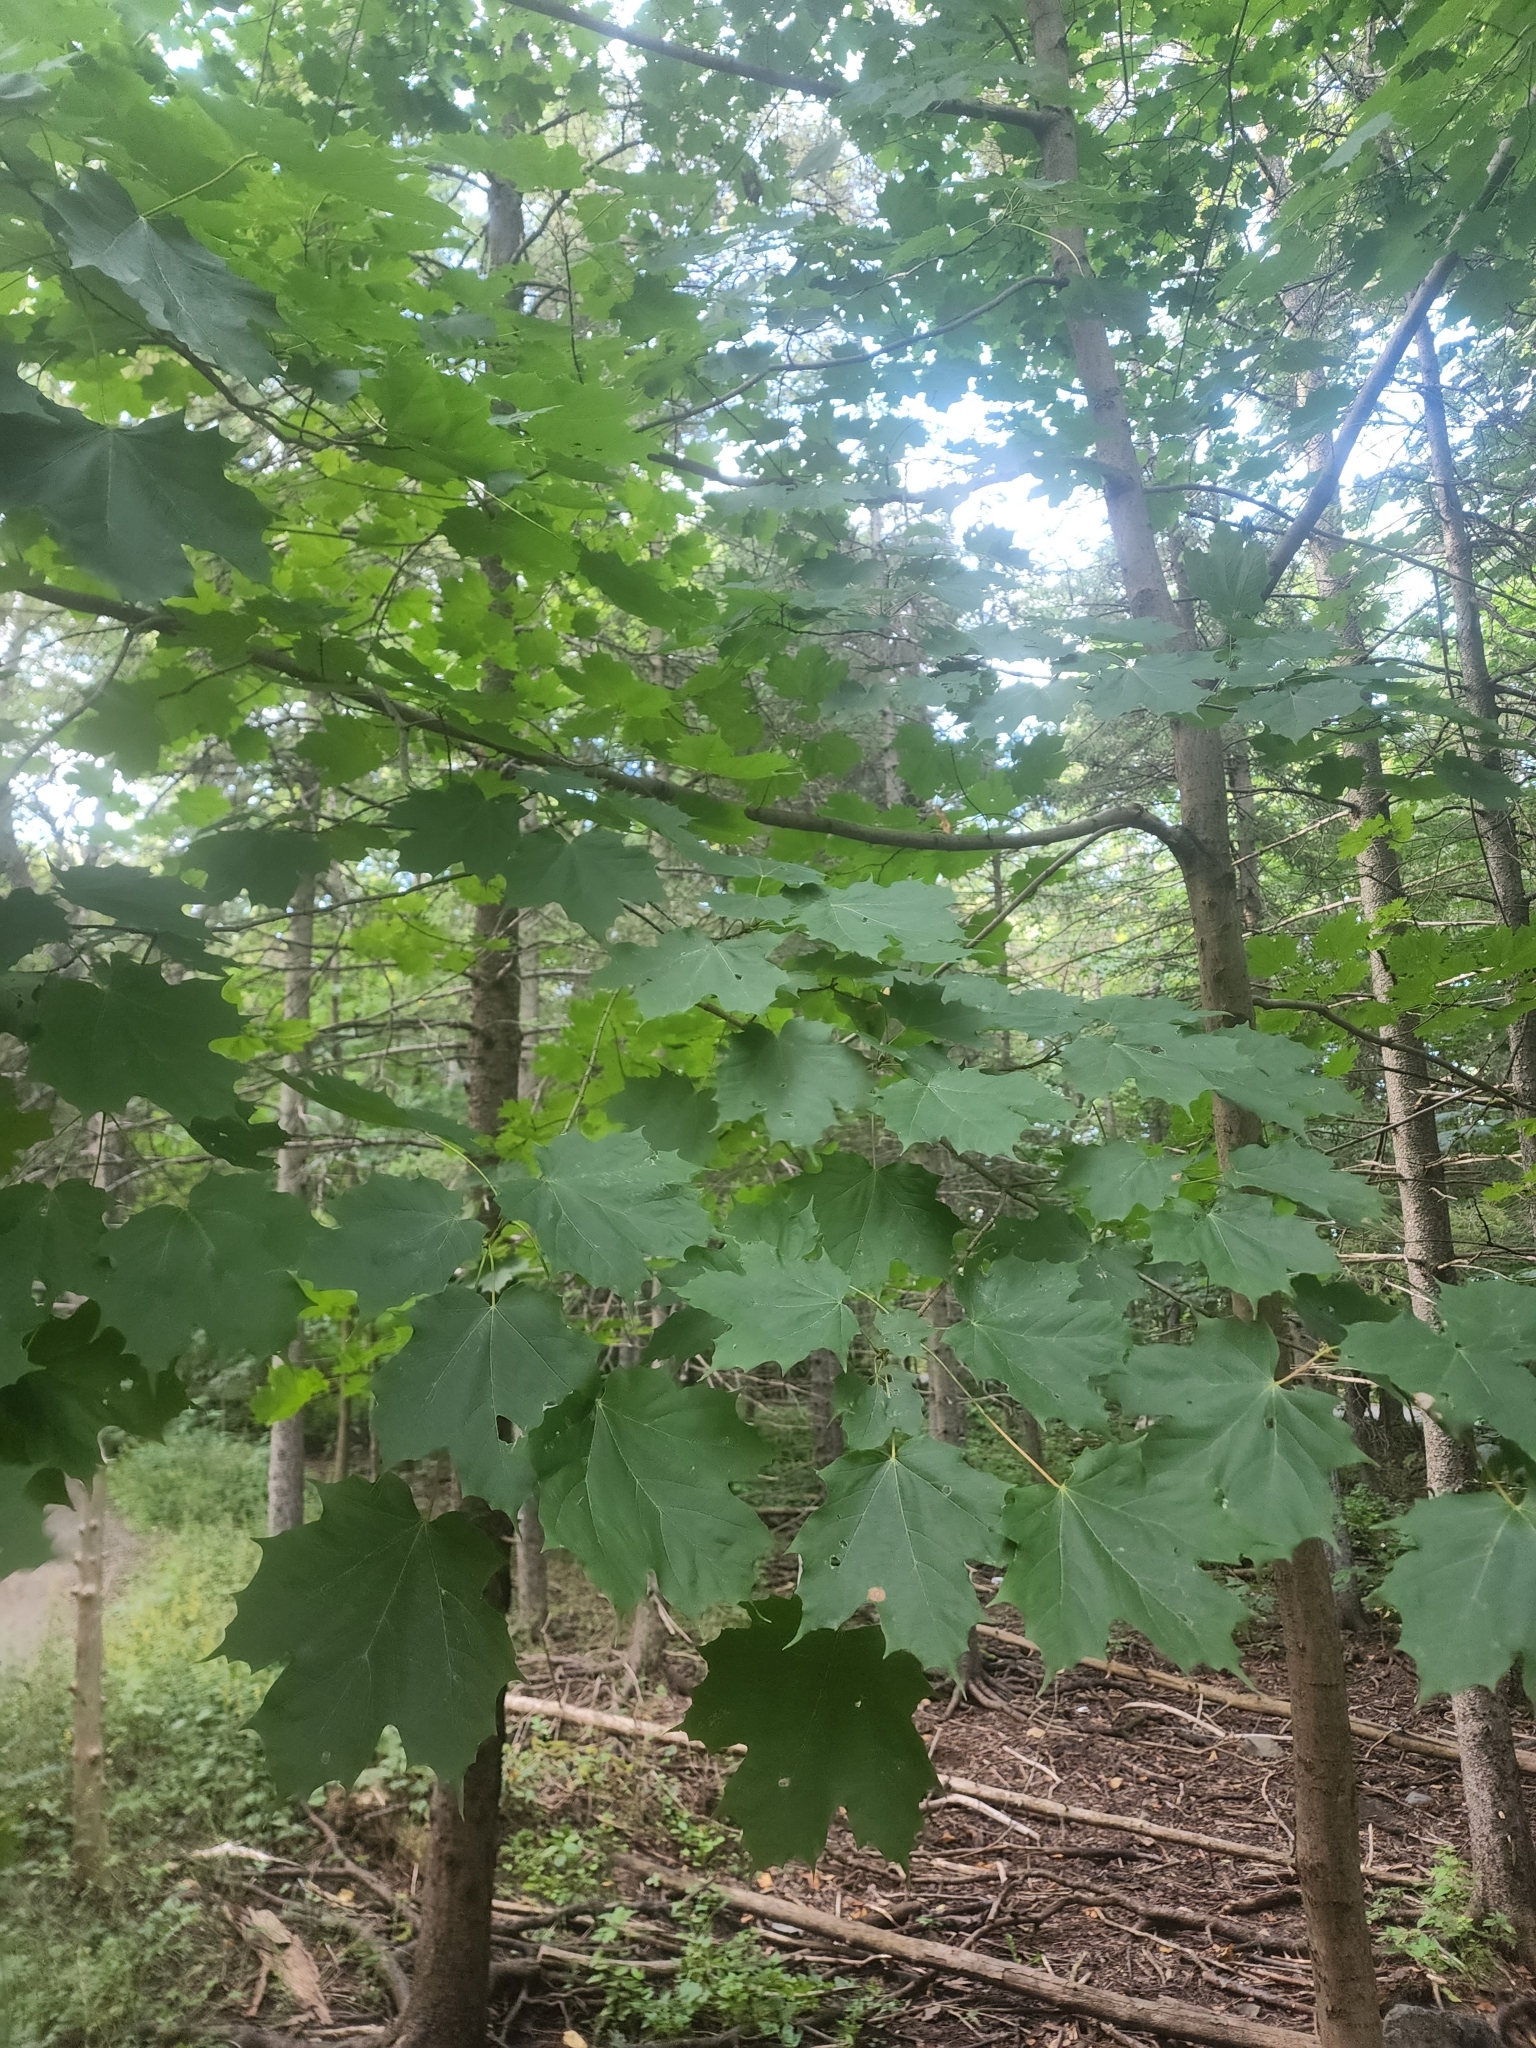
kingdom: Plantae
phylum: Tracheophyta
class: Magnoliopsida
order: Sapindales
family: Sapindaceae
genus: Acer
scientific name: Acer platanoides
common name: Norway maple
